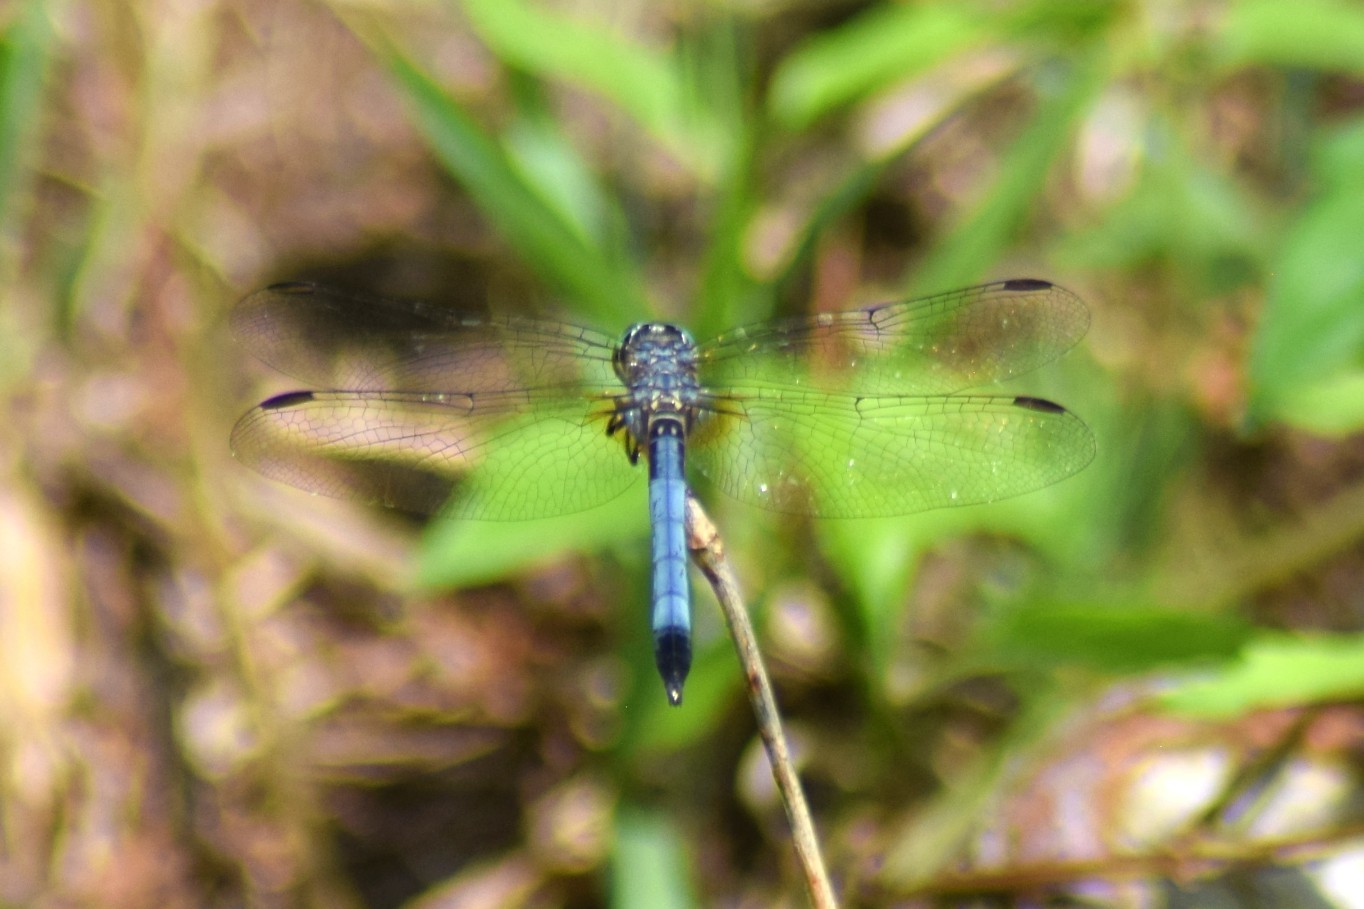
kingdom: Animalia
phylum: Arthropoda
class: Insecta
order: Odonata
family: Libellulidae
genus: Pachydiplax
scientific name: Pachydiplax longipennis
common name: Blue dasher
